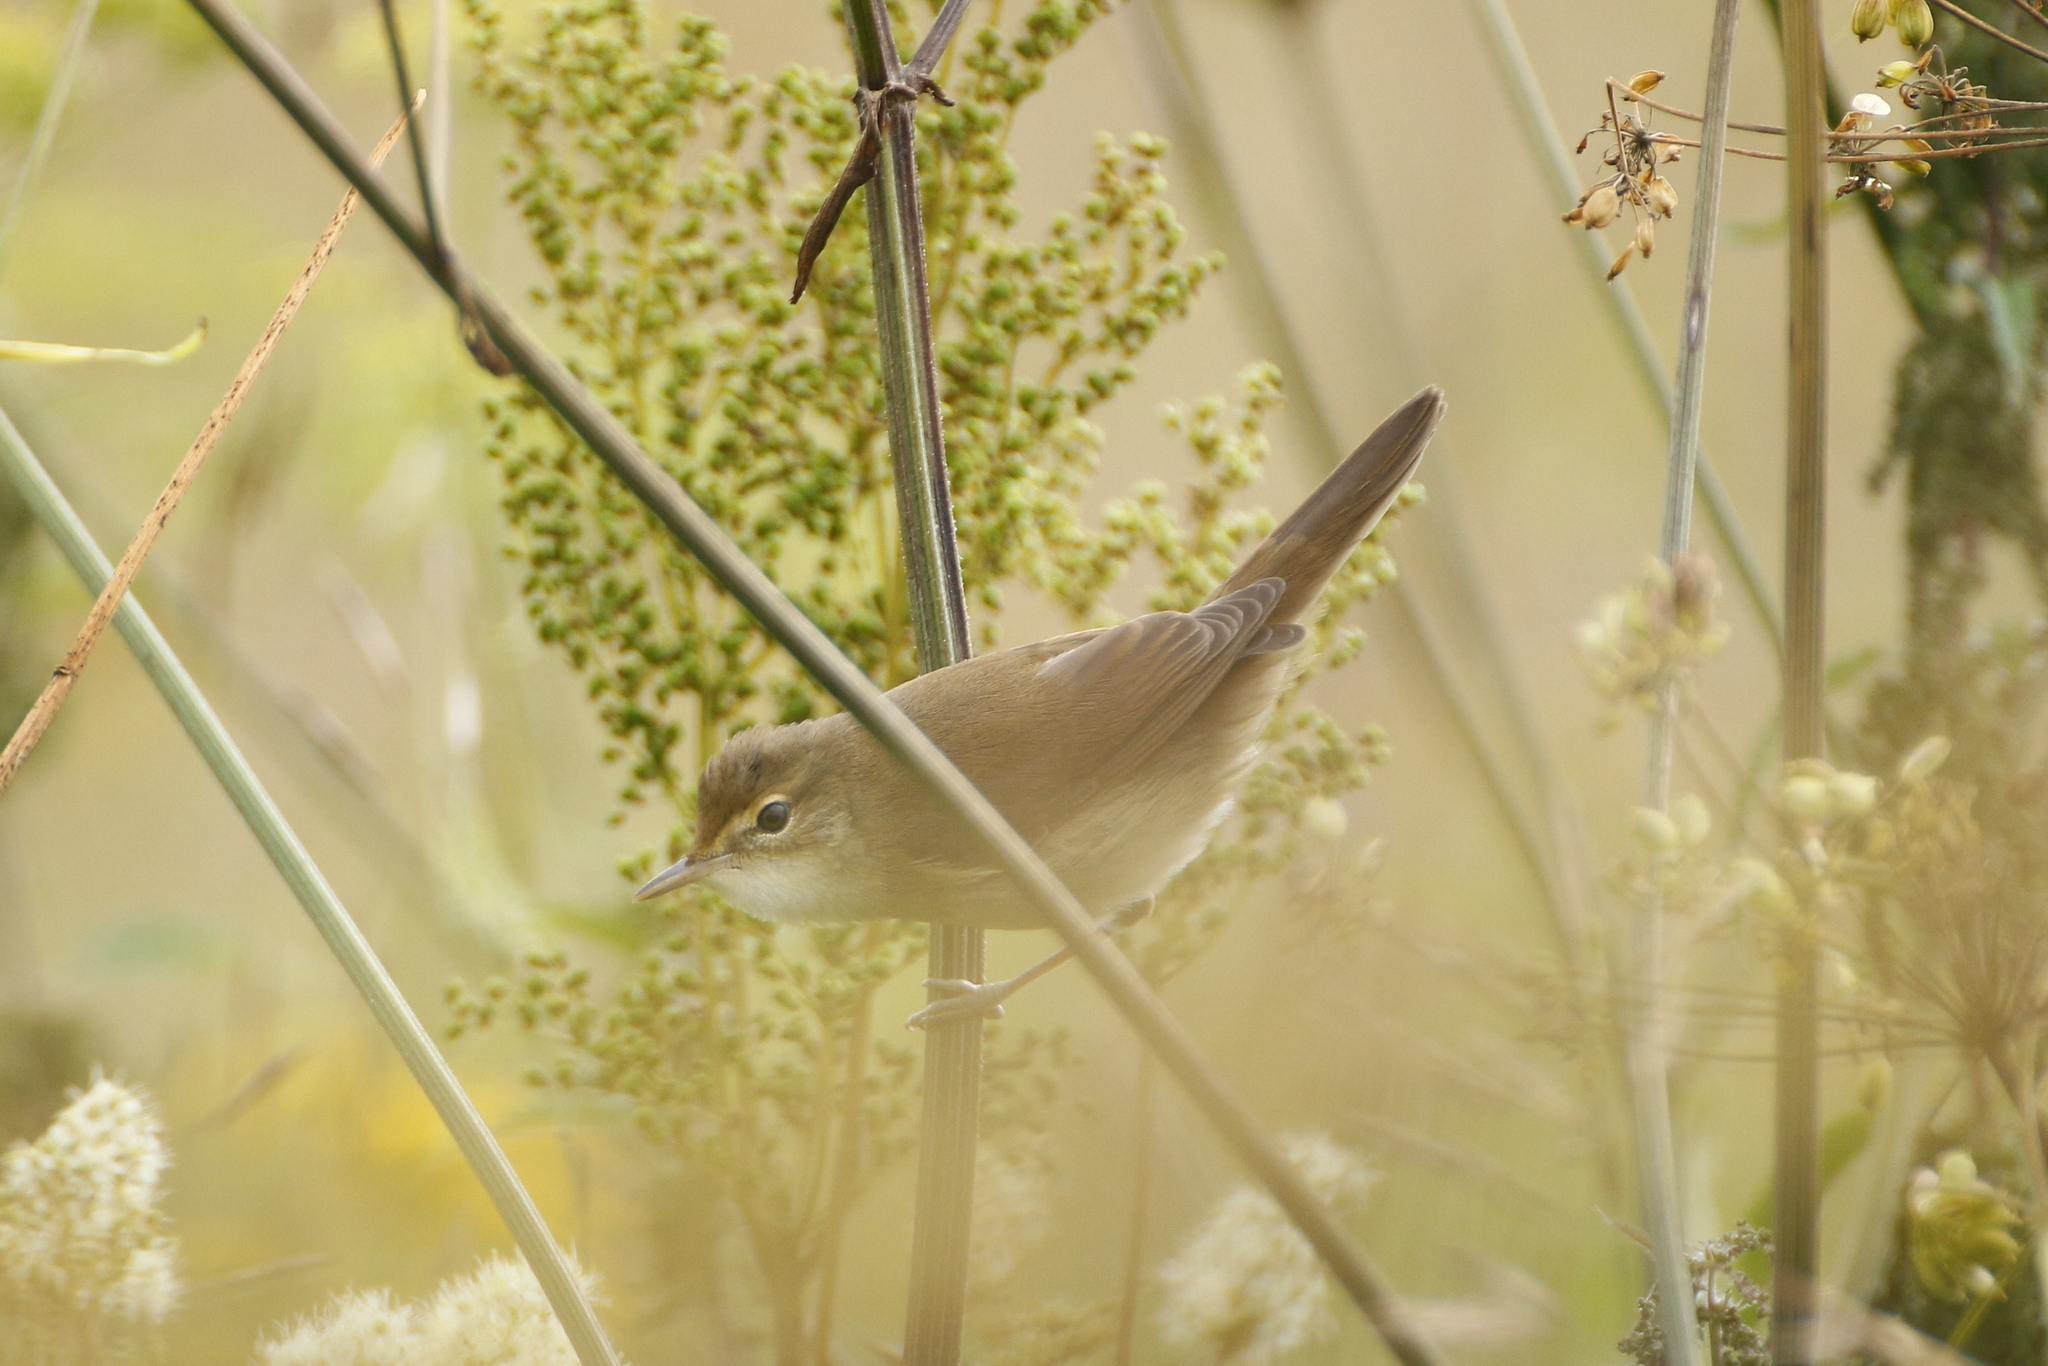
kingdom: Animalia
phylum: Chordata
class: Aves
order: Passeriformes
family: Acrocephalidae
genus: Acrocephalus
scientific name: Acrocephalus dumetorum
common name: Blyth's reed warbler
